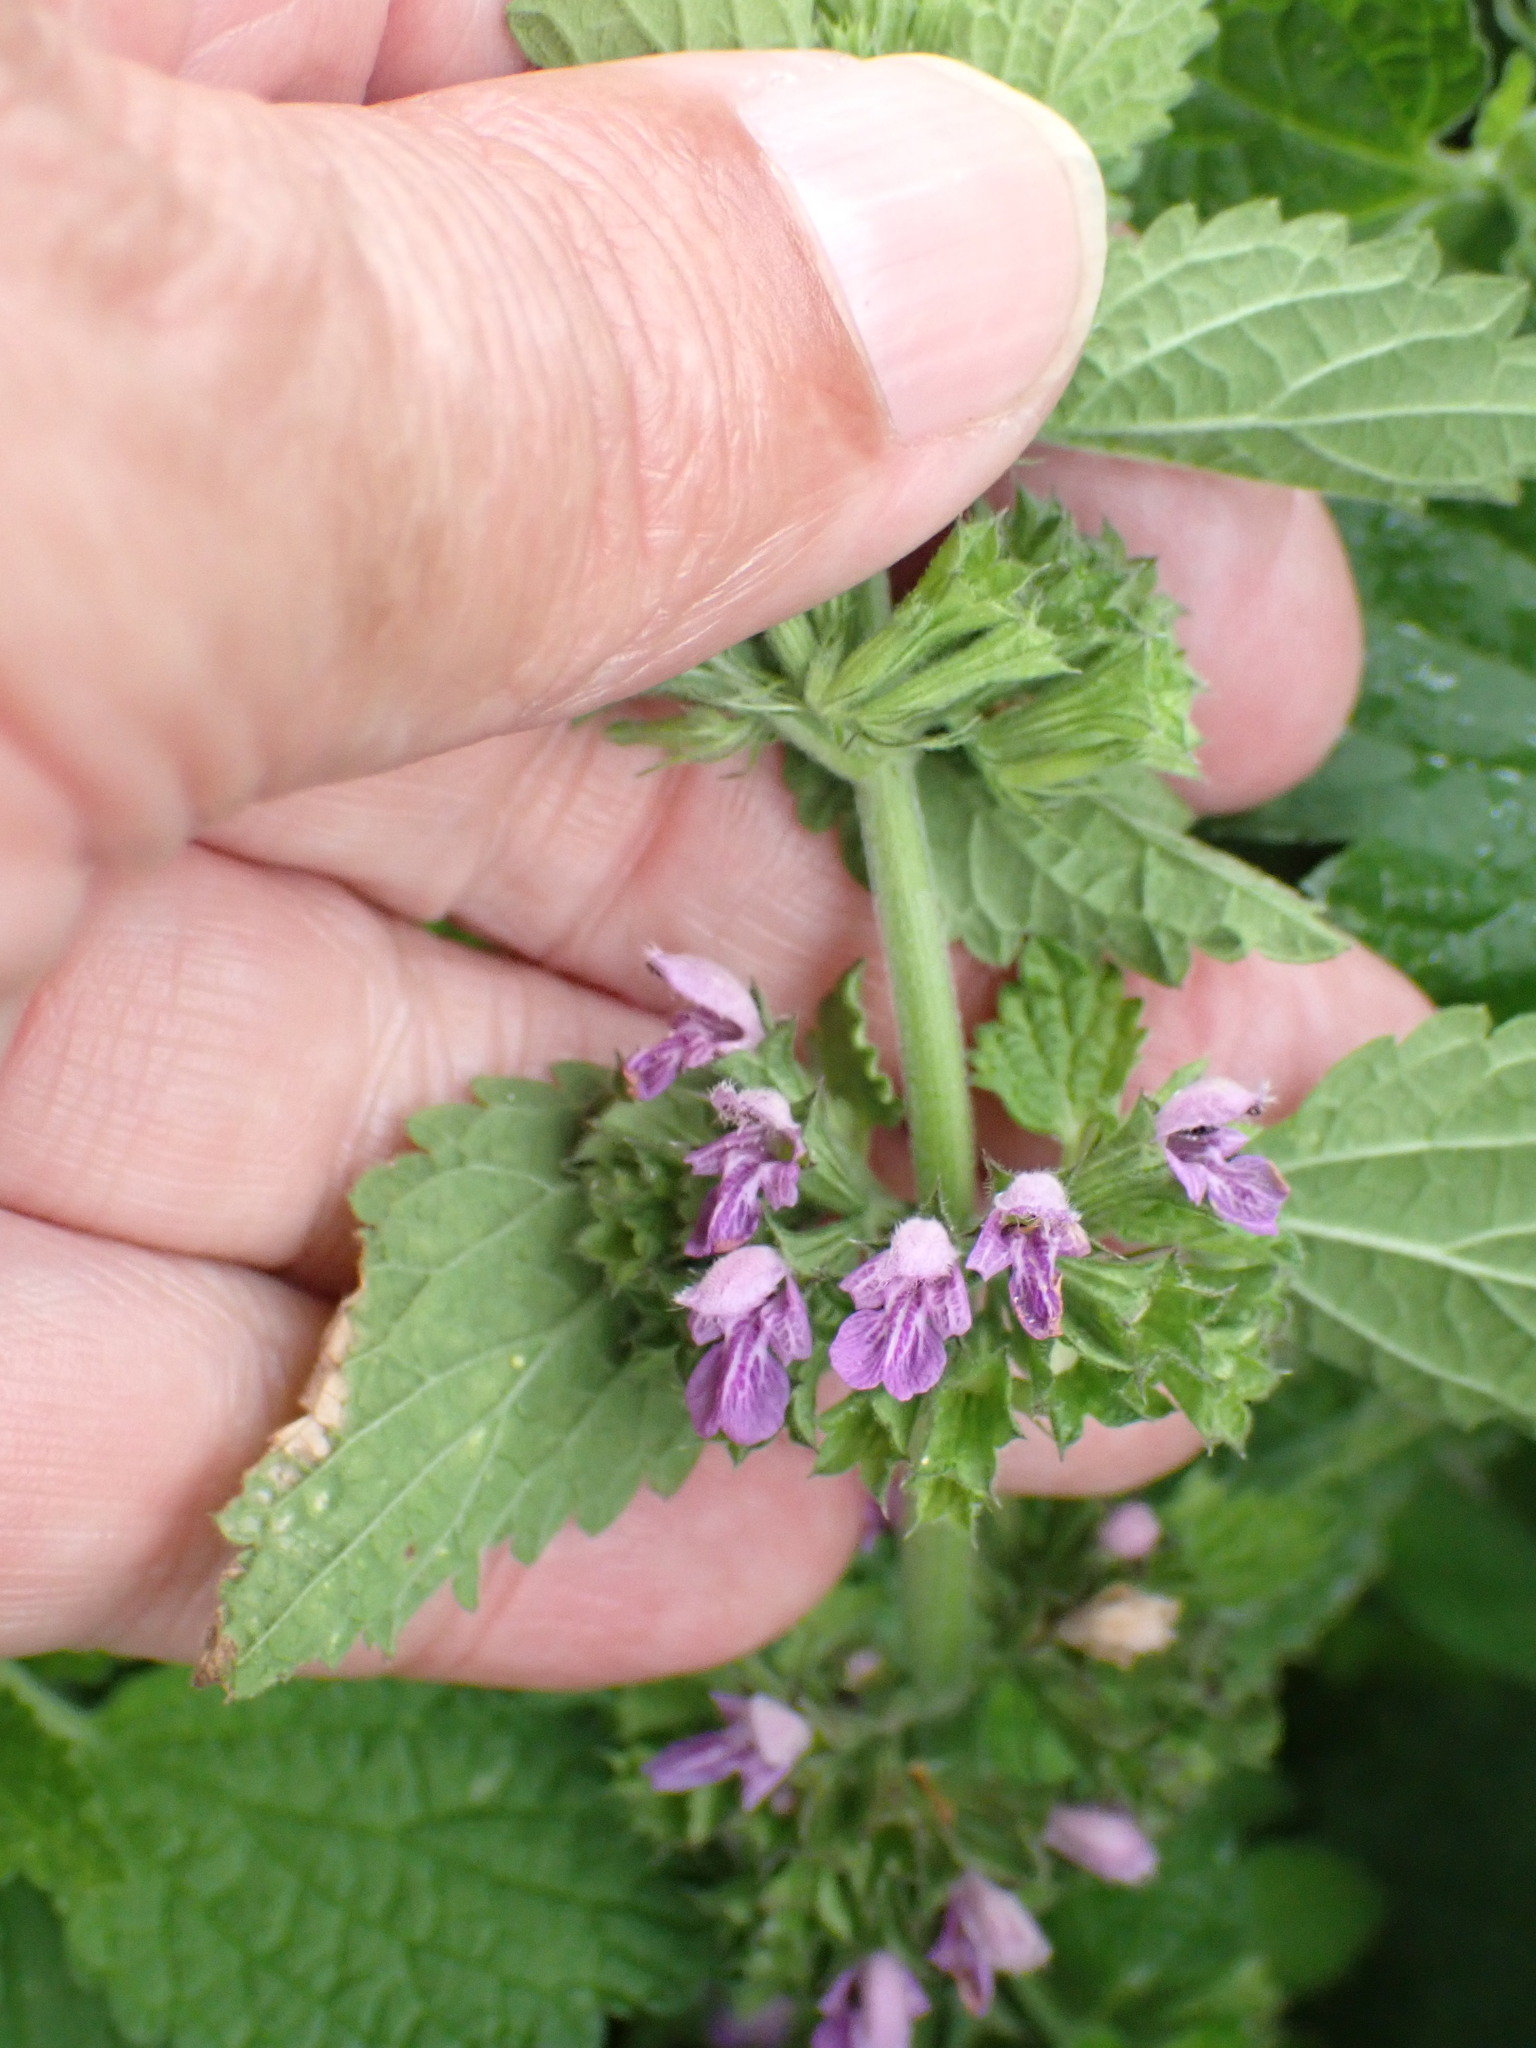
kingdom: Plantae
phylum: Tracheophyta
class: Magnoliopsida
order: Lamiales
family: Lamiaceae
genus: Ballota
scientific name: Ballota nigra
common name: Black horehound
